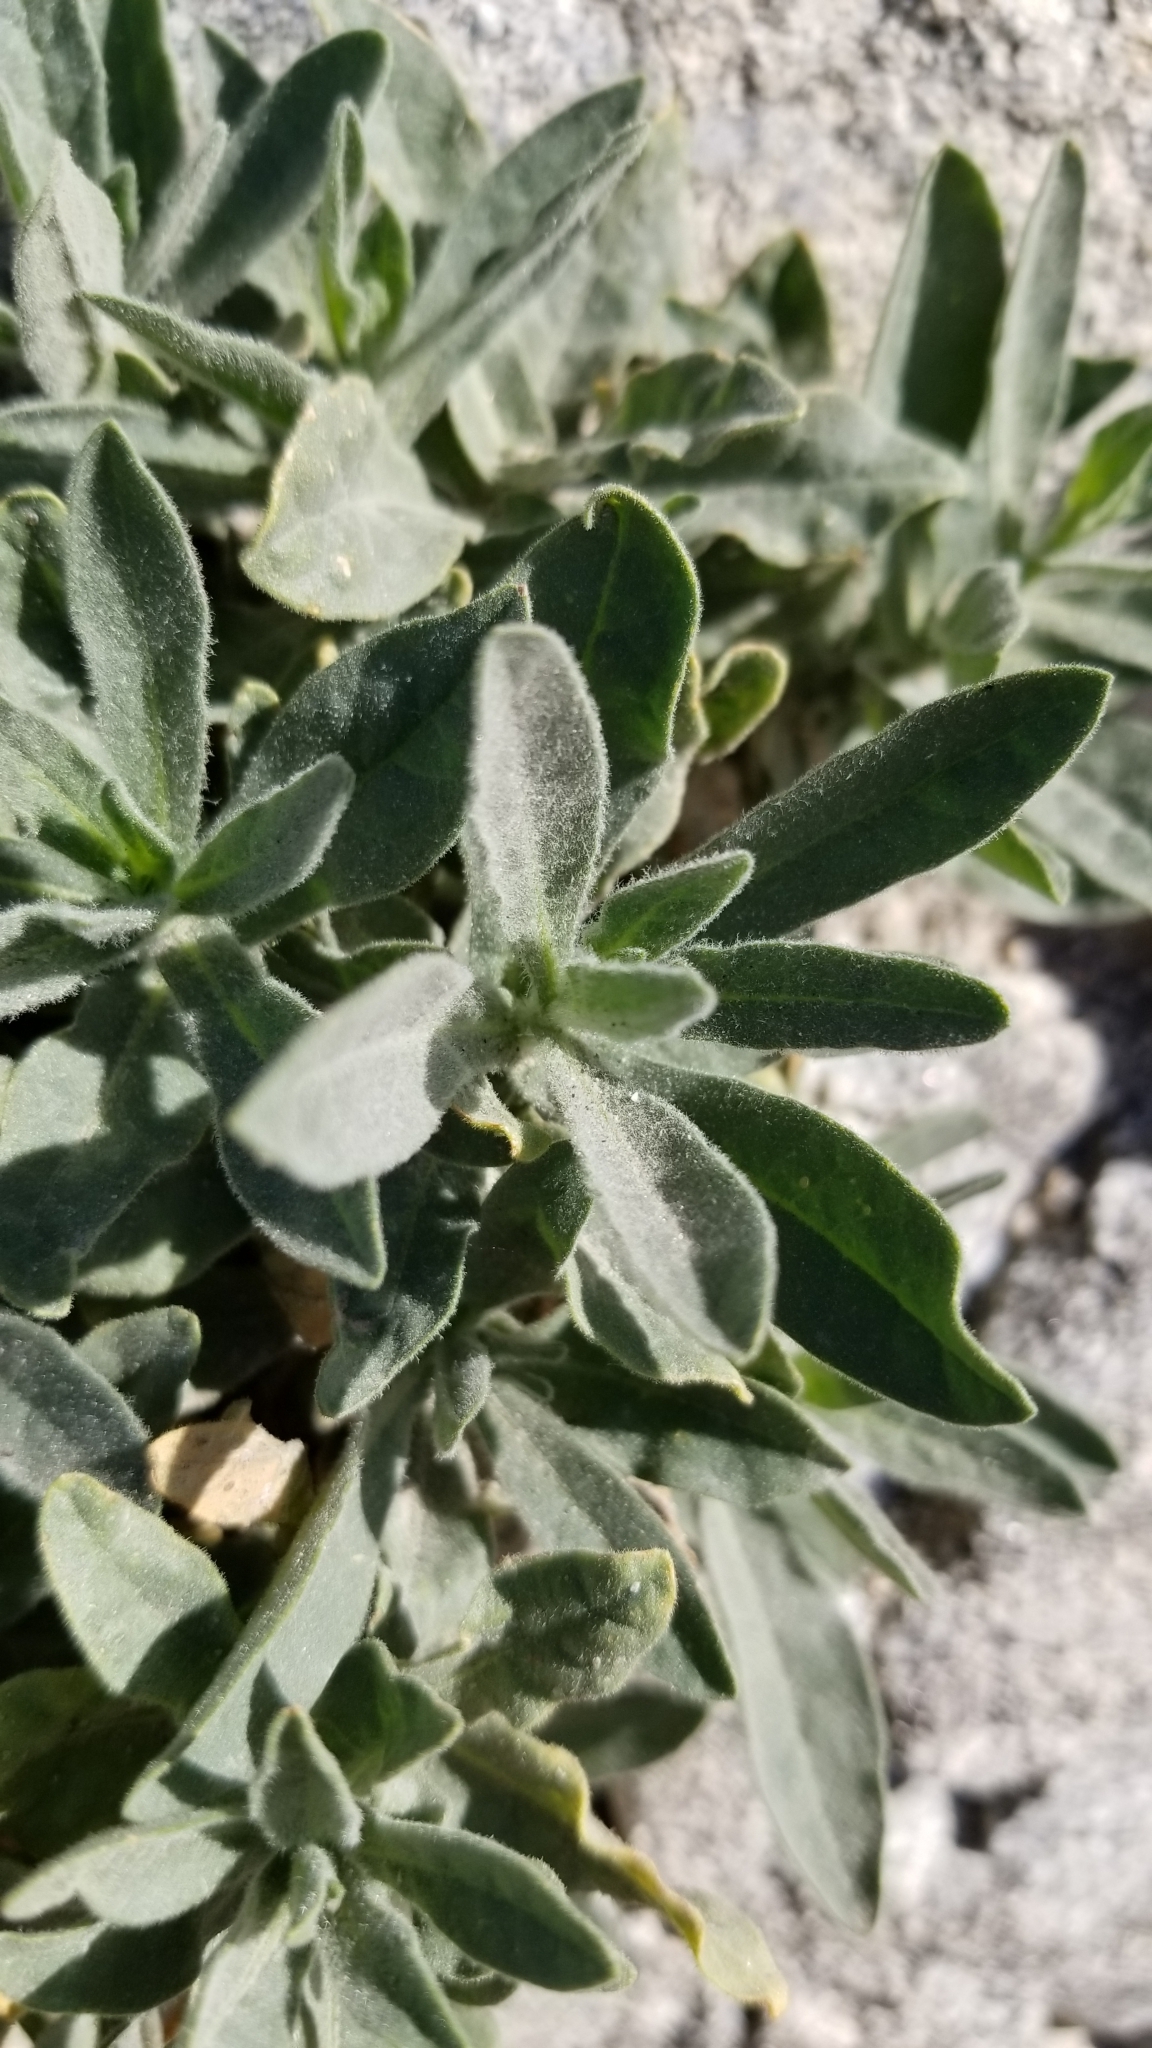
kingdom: Plantae
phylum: Tracheophyta
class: Magnoliopsida
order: Solanales
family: Solanaceae
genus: Nicotiana
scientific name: Nicotiana obtusifolia
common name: Desert tobacco
